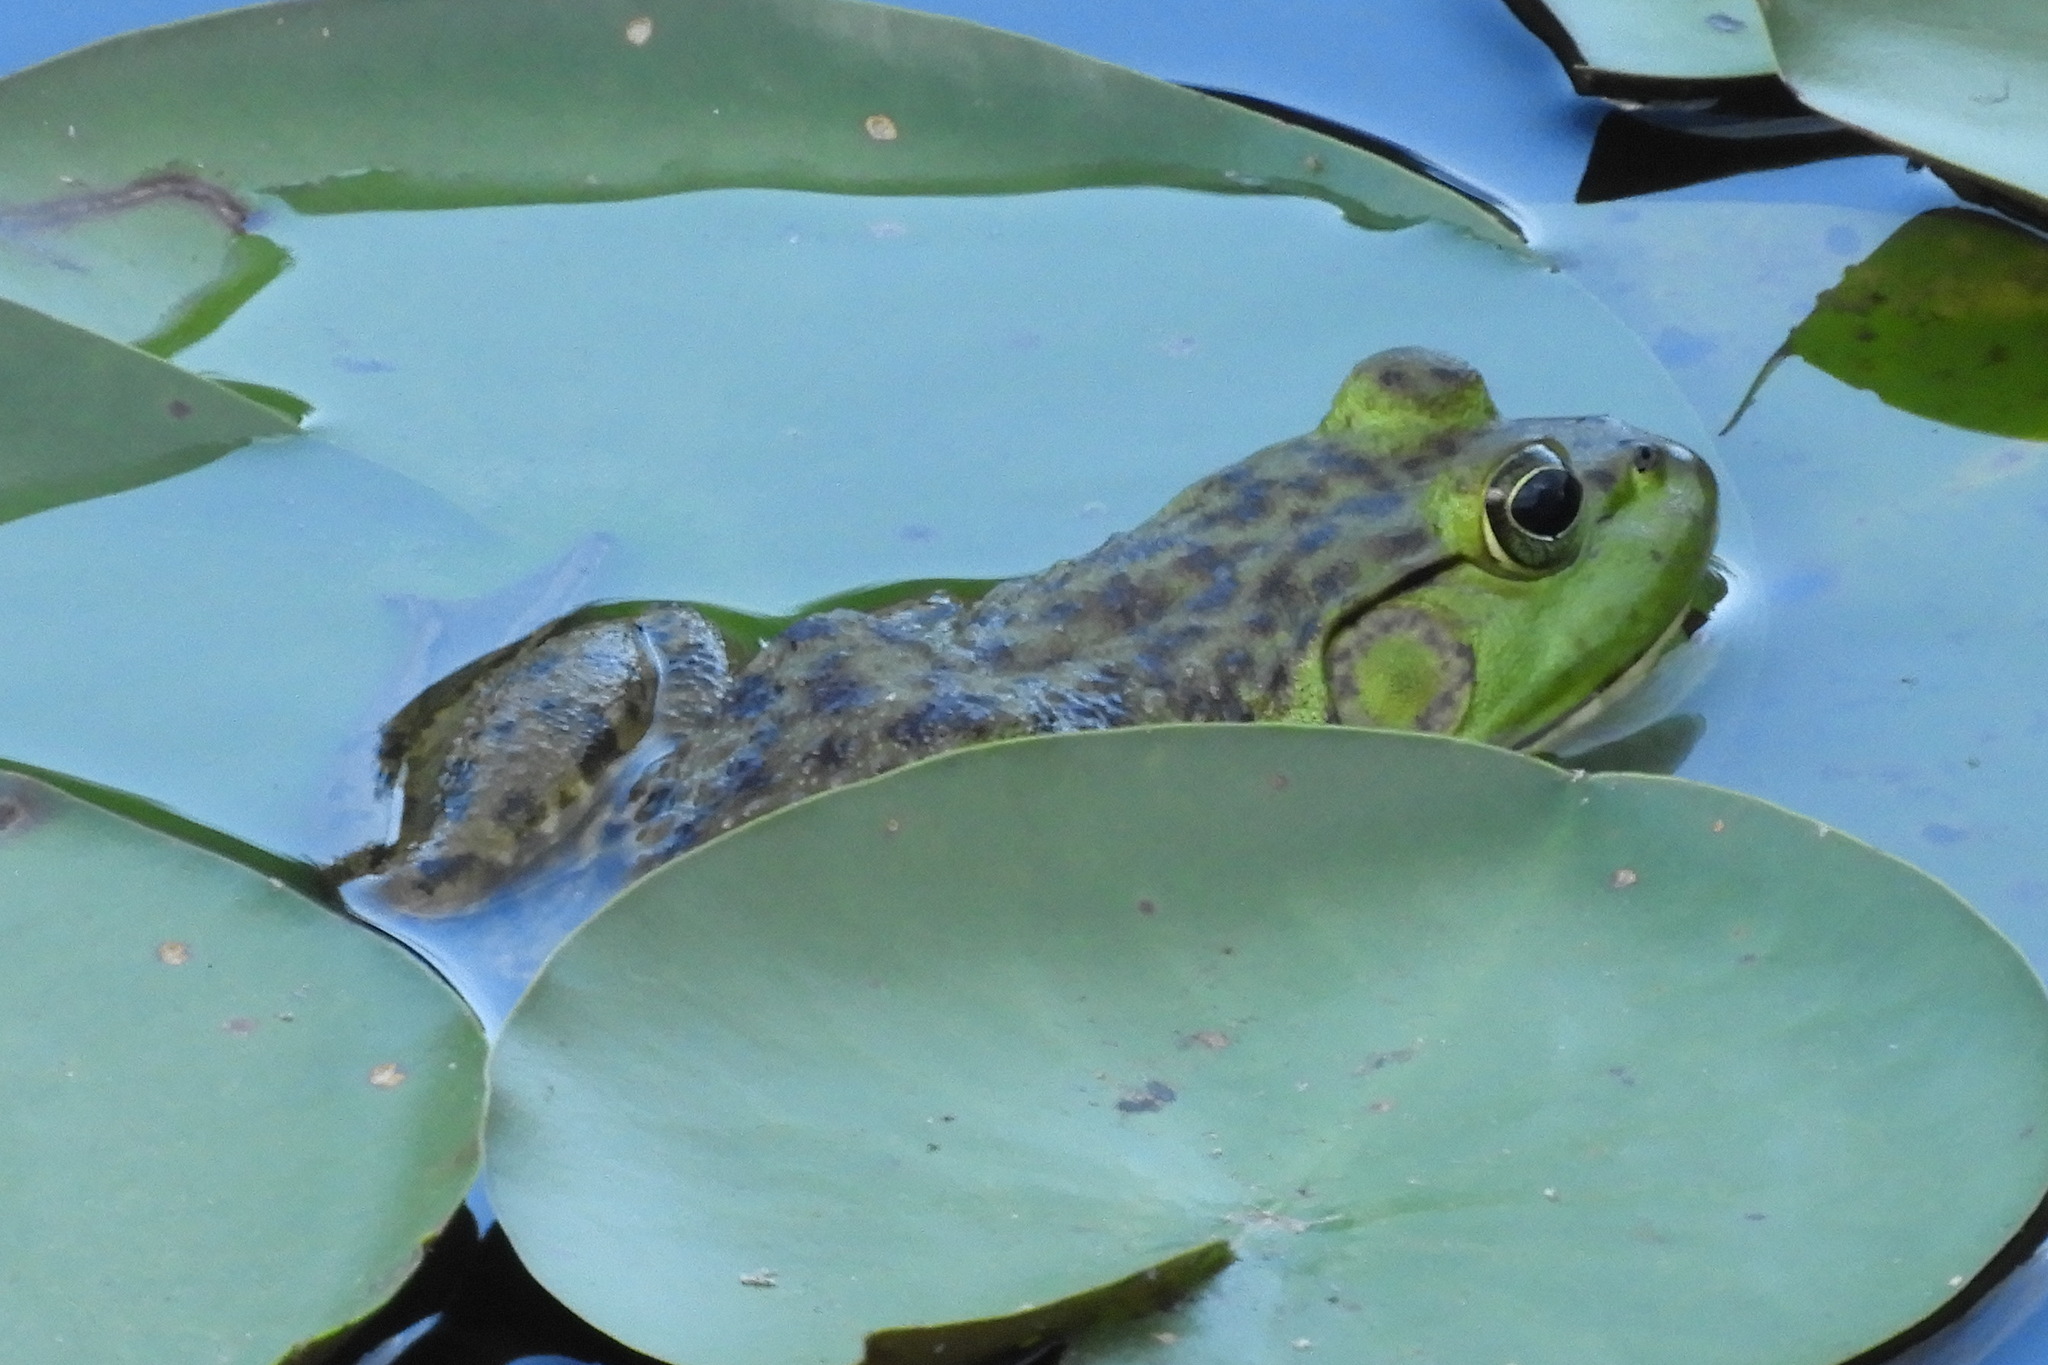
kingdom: Animalia
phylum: Chordata
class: Amphibia
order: Anura
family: Ranidae
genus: Lithobates
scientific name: Lithobates catesbeianus
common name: American bullfrog
